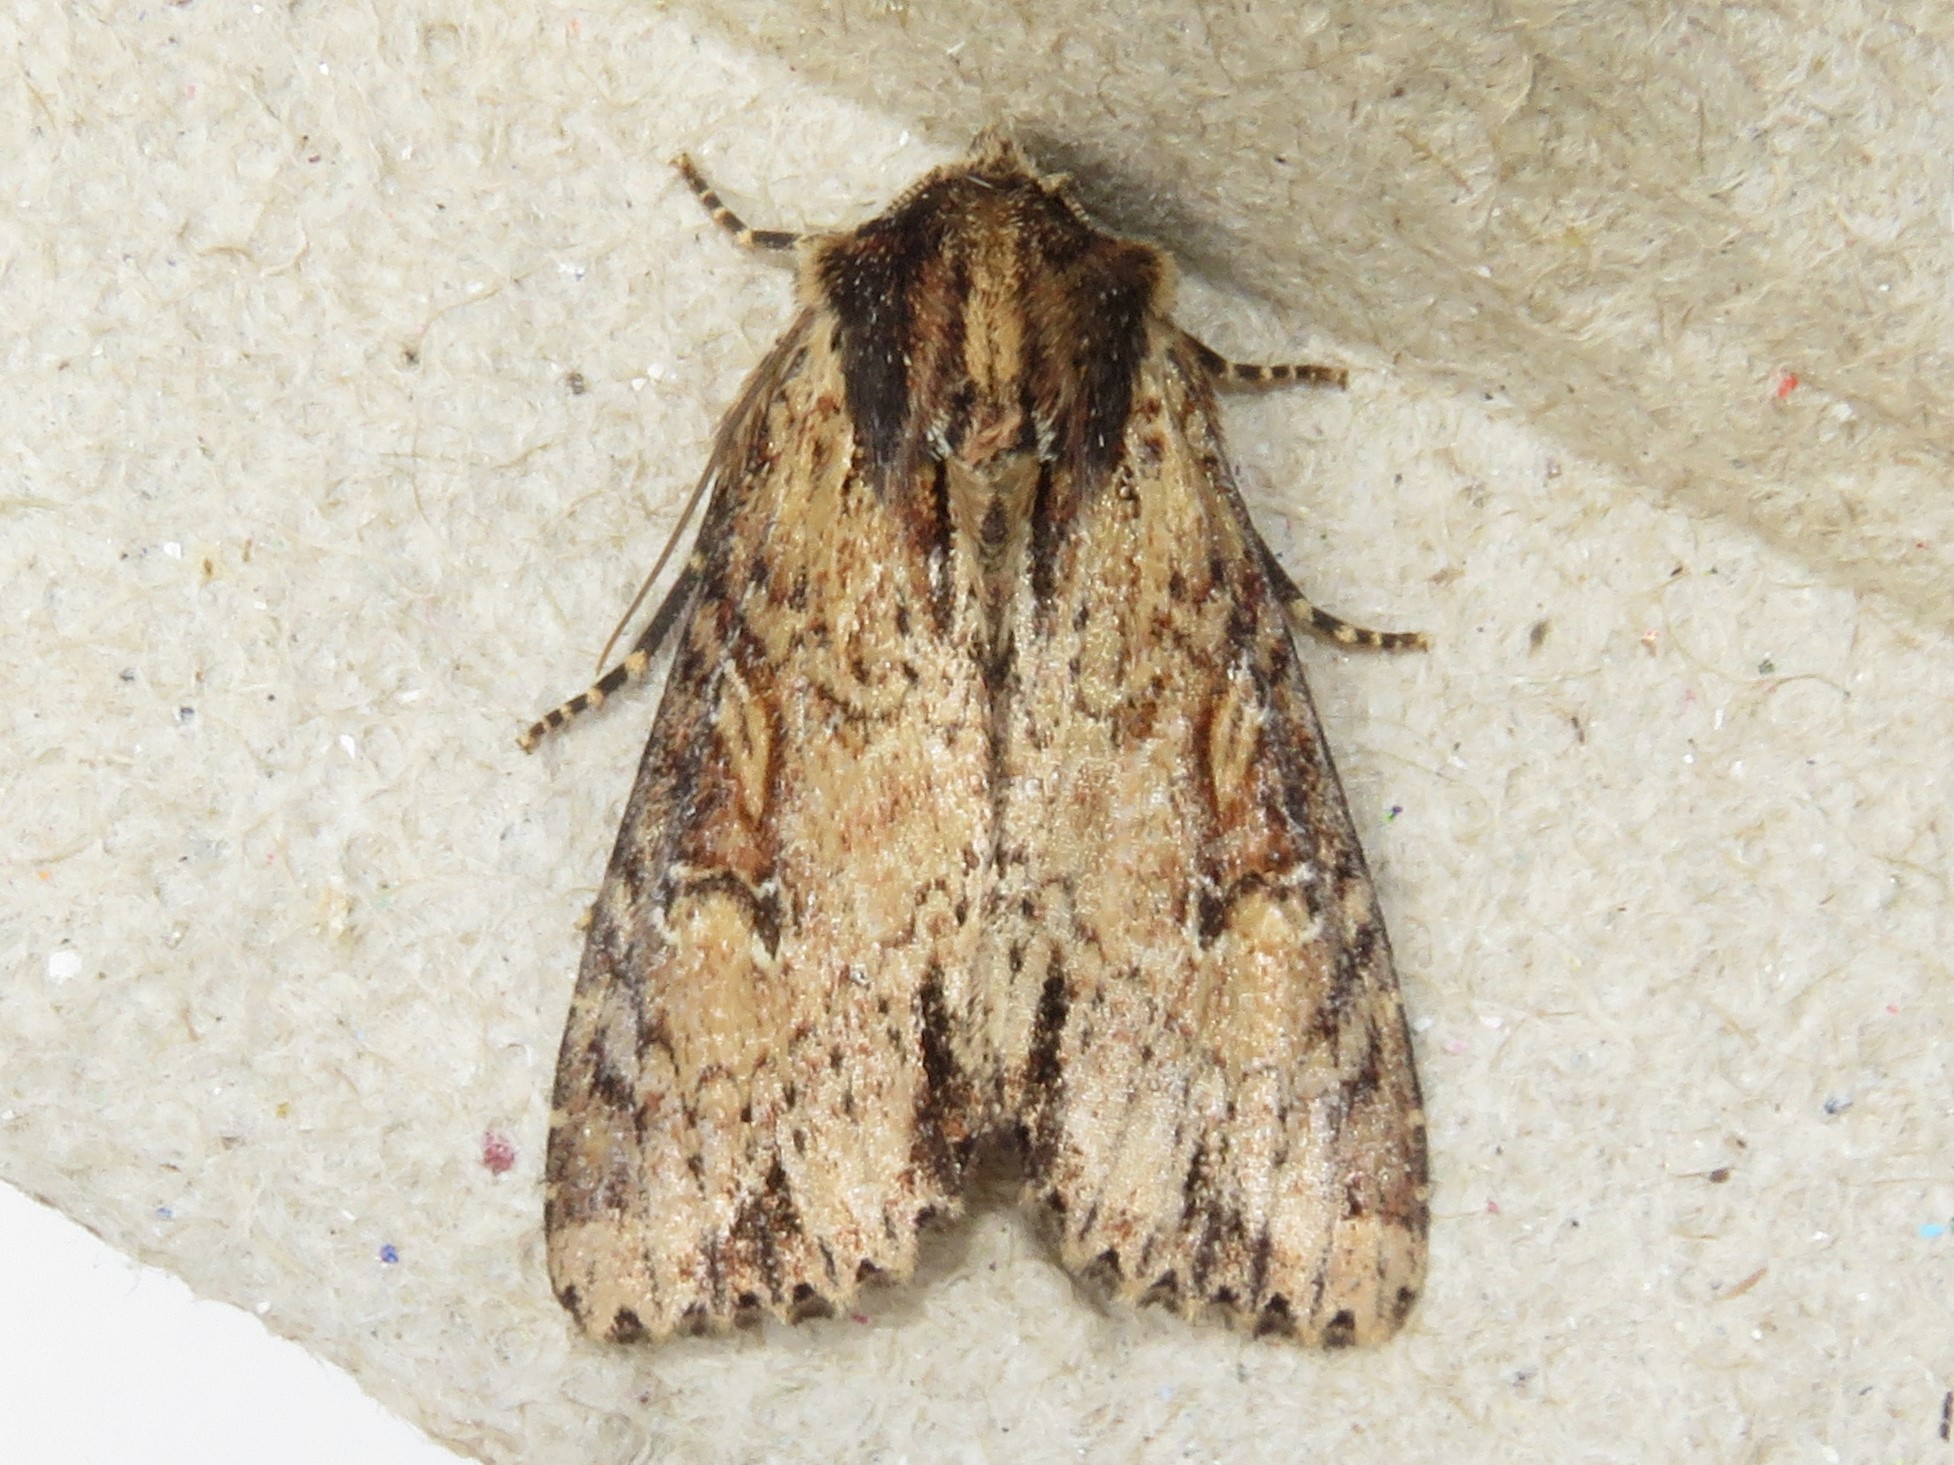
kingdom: Animalia
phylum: Arthropoda
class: Insecta
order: Lepidoptera
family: Noctuidae
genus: Apamea
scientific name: Apamea vultuosa
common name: Airy apamea moth
